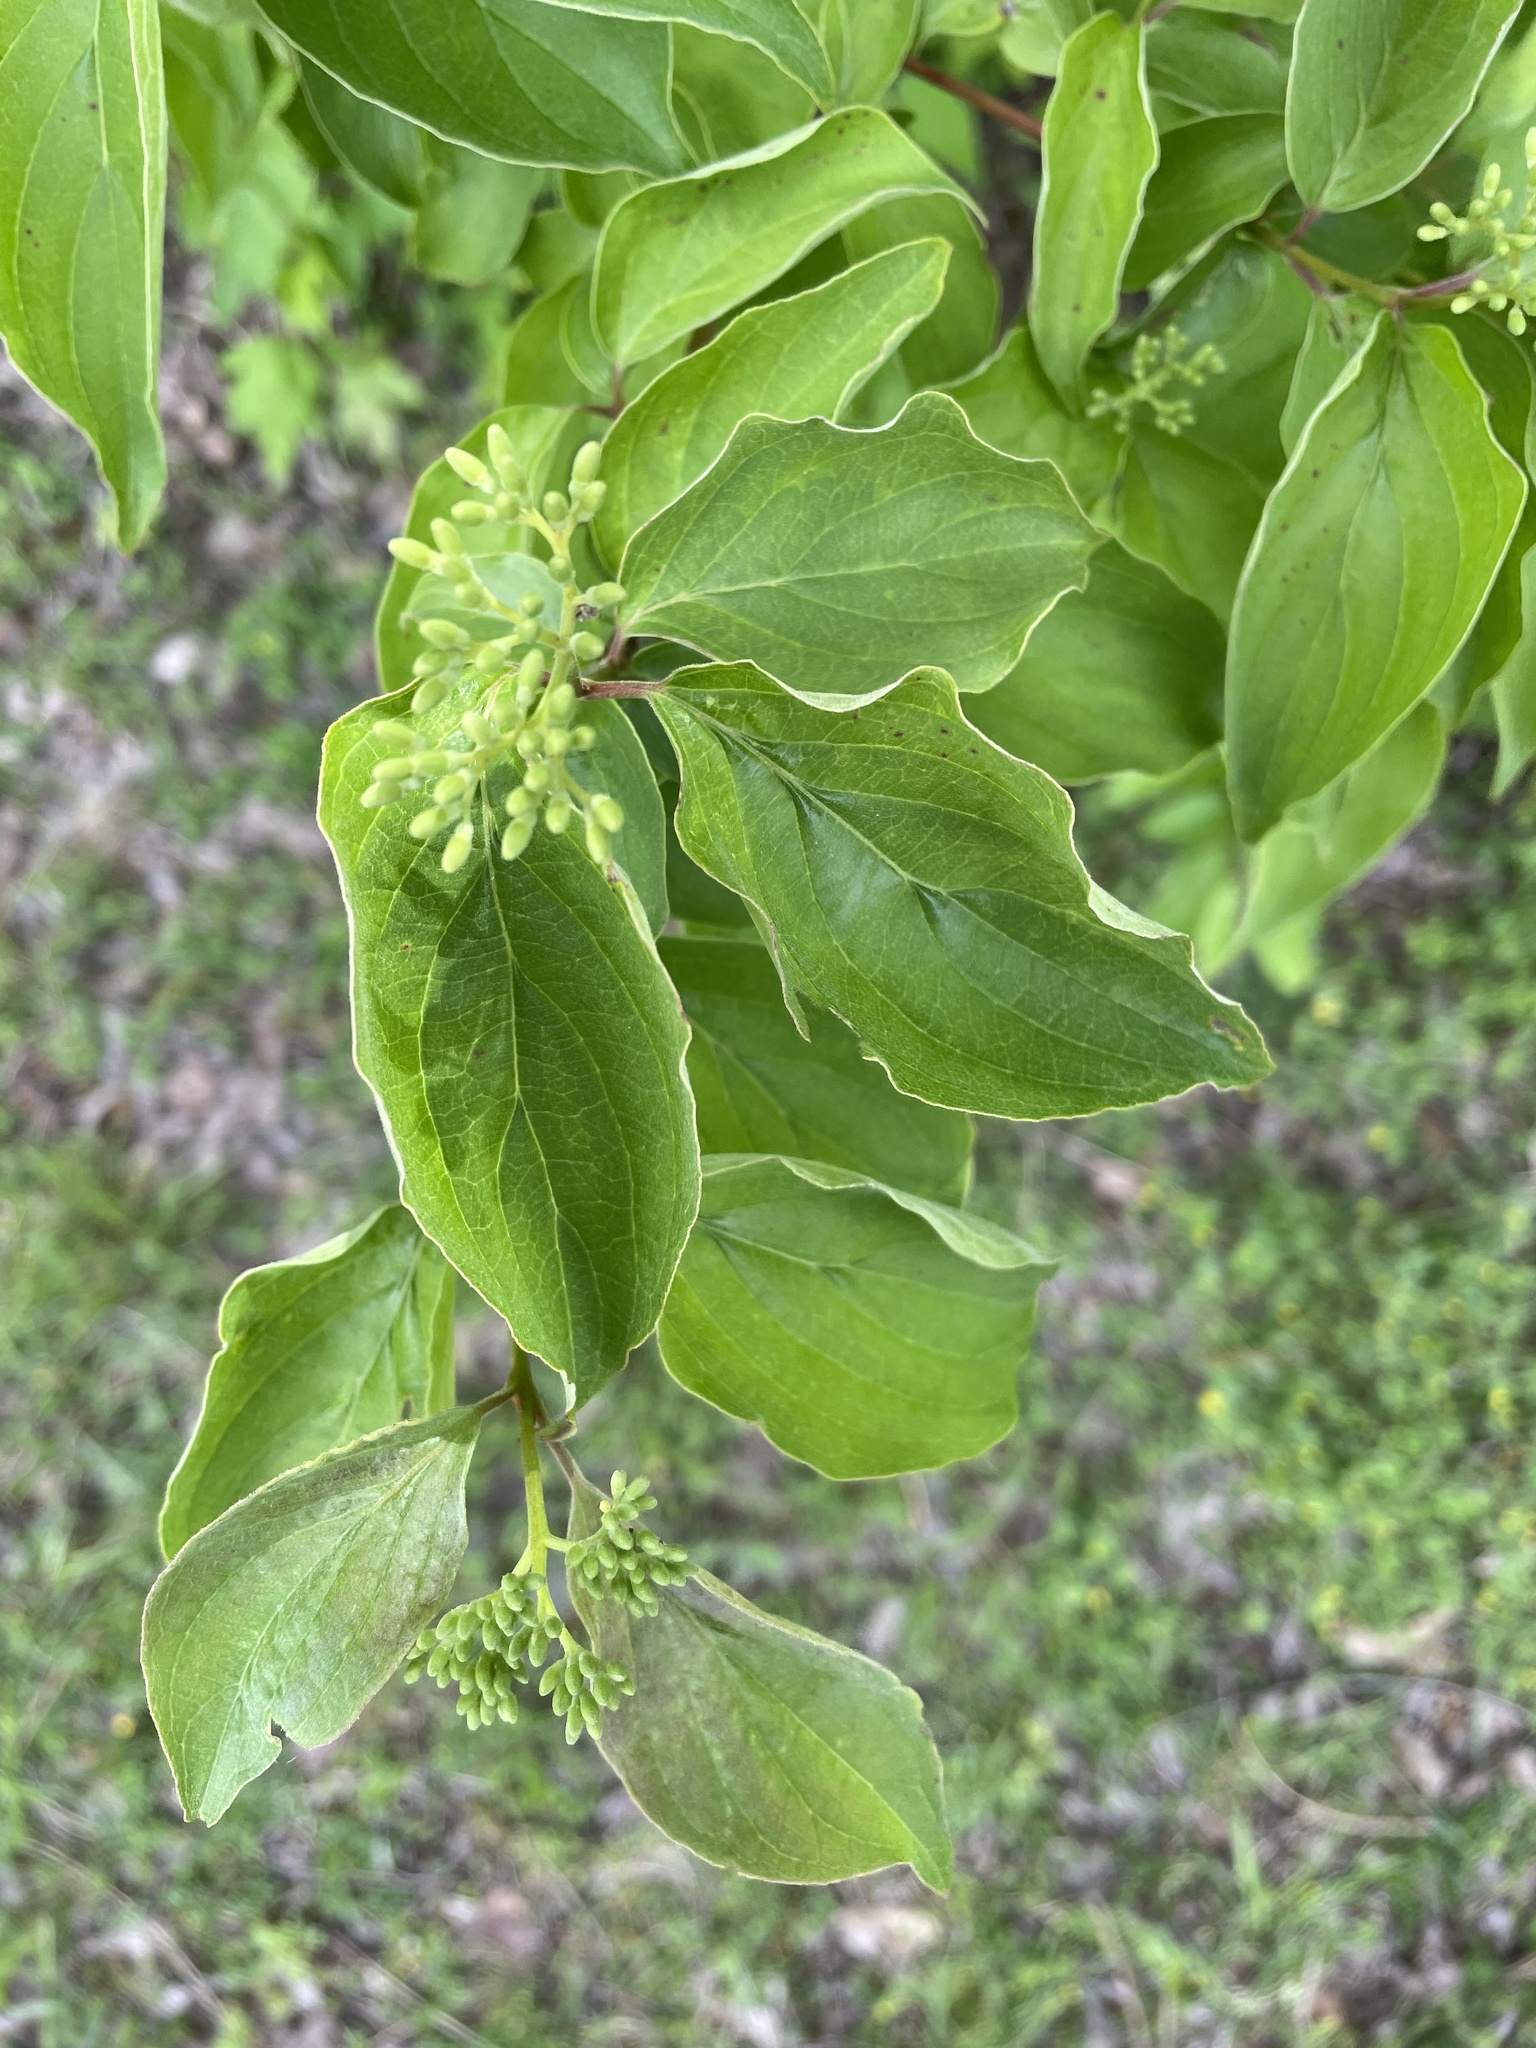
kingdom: Plantae
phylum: Tracheophyta
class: Magnoliopsida
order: Cornales
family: Cornaceae
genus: Cornus
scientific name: Cornus drummondii
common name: Rough-leaf dogwood
